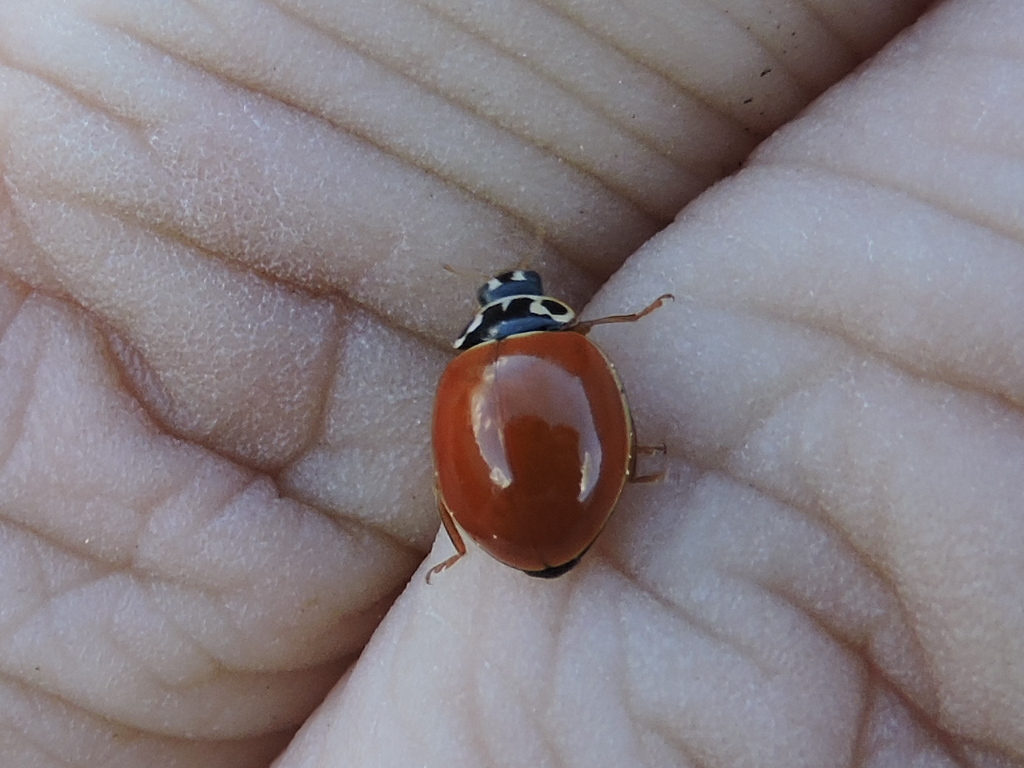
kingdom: Animalia
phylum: Arthropoda
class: Insecta
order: Coleoptera
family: Coccinellidae
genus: Cycloneda
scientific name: Cycloneda munda
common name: Polished lady beetle
